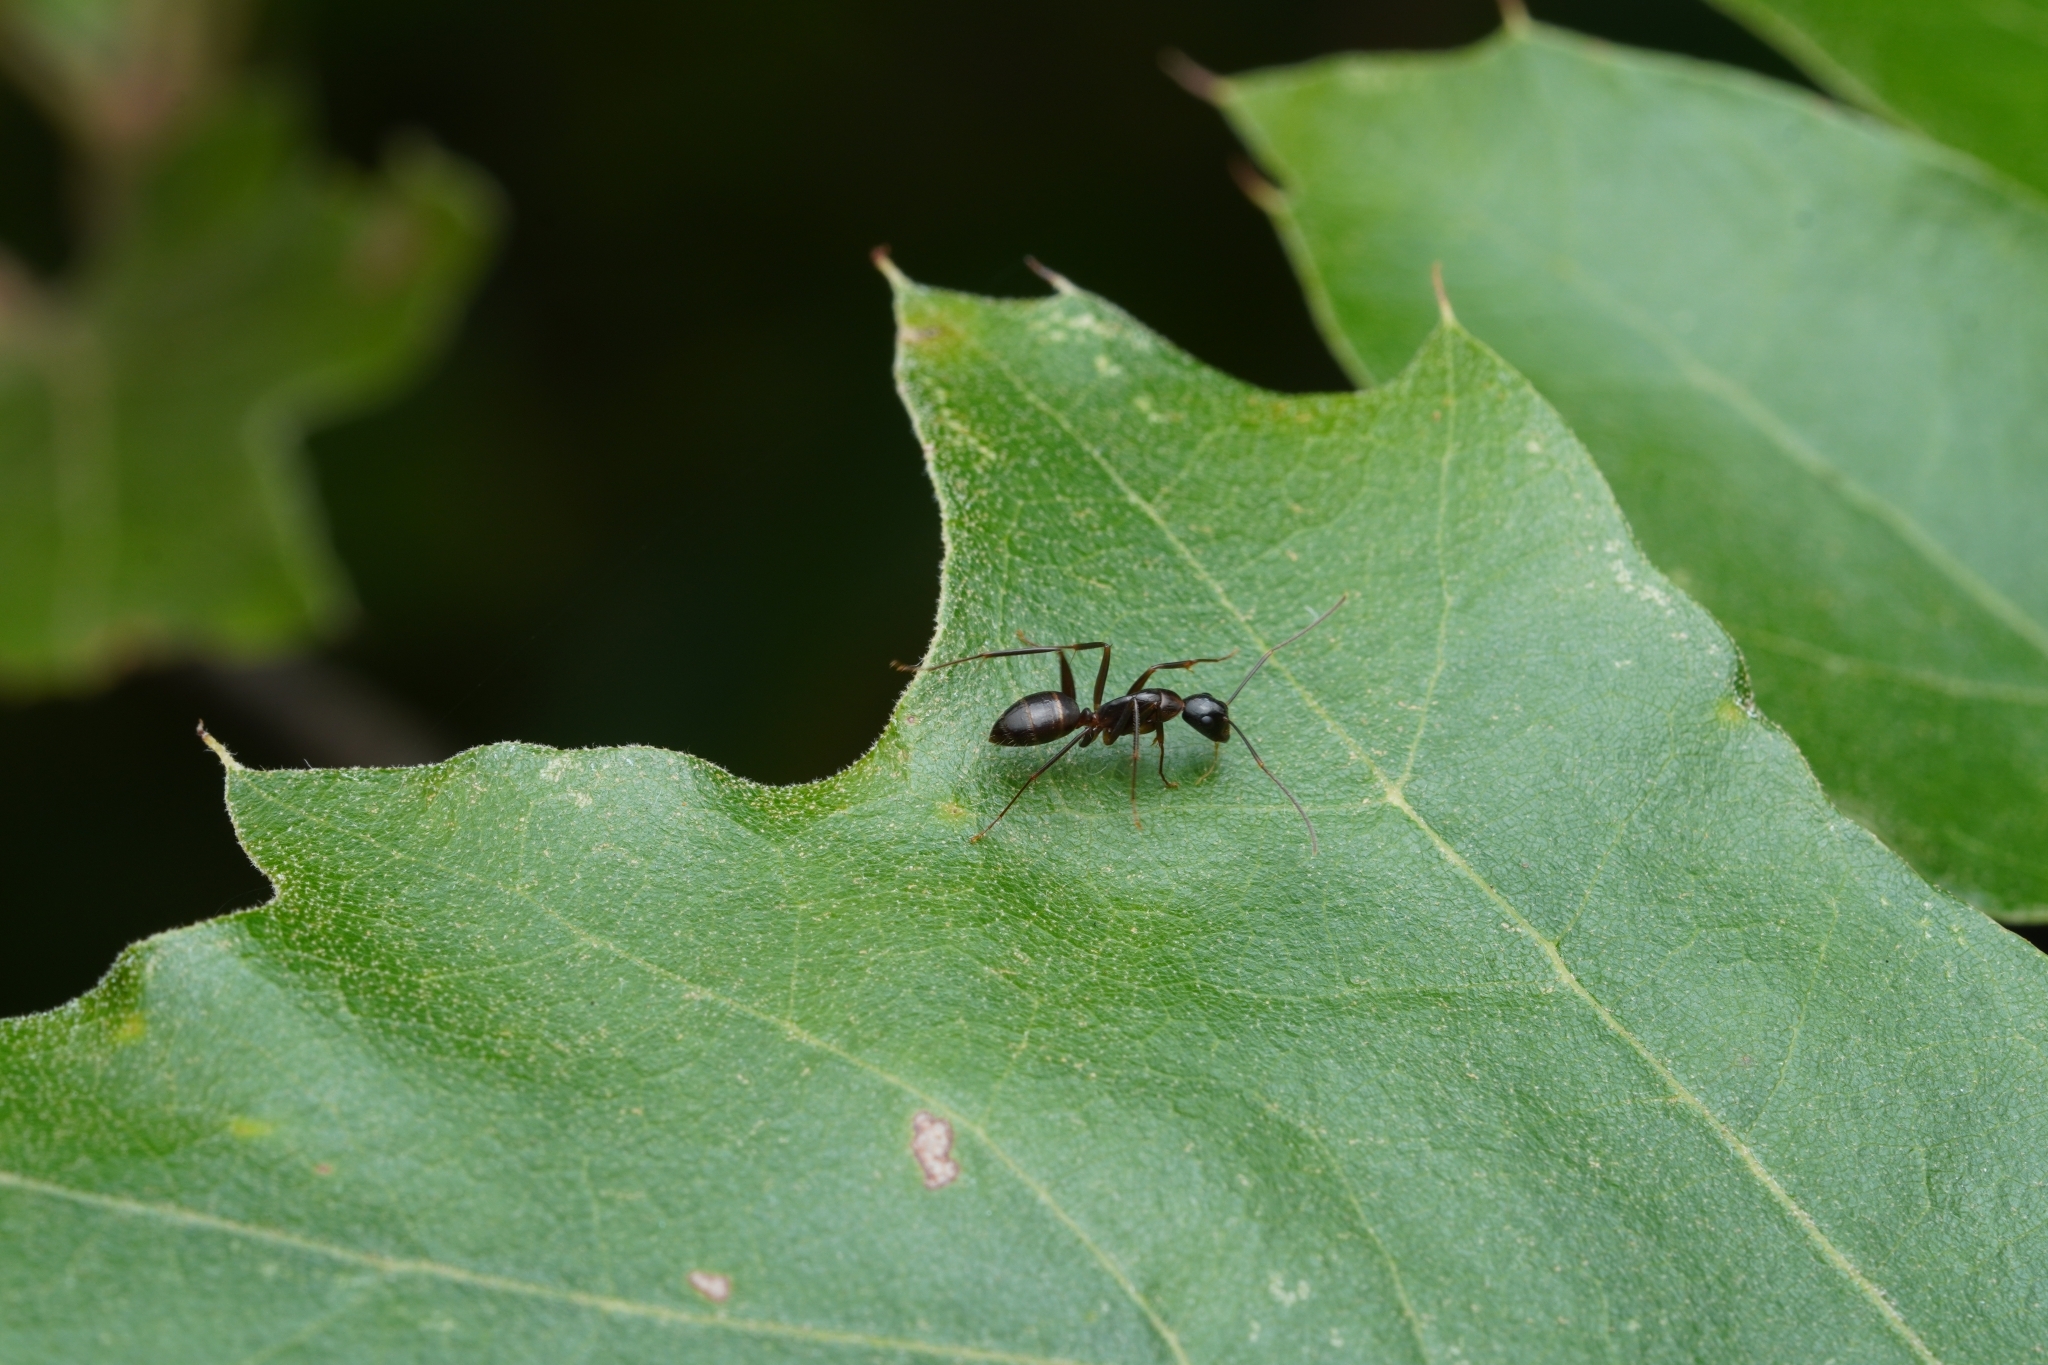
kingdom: Animalia
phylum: Arthropoda
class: Insecta
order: Hymenoptera
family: Formicidae
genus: Camponotus
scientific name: Camponotus americanus
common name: American carpenter ant
